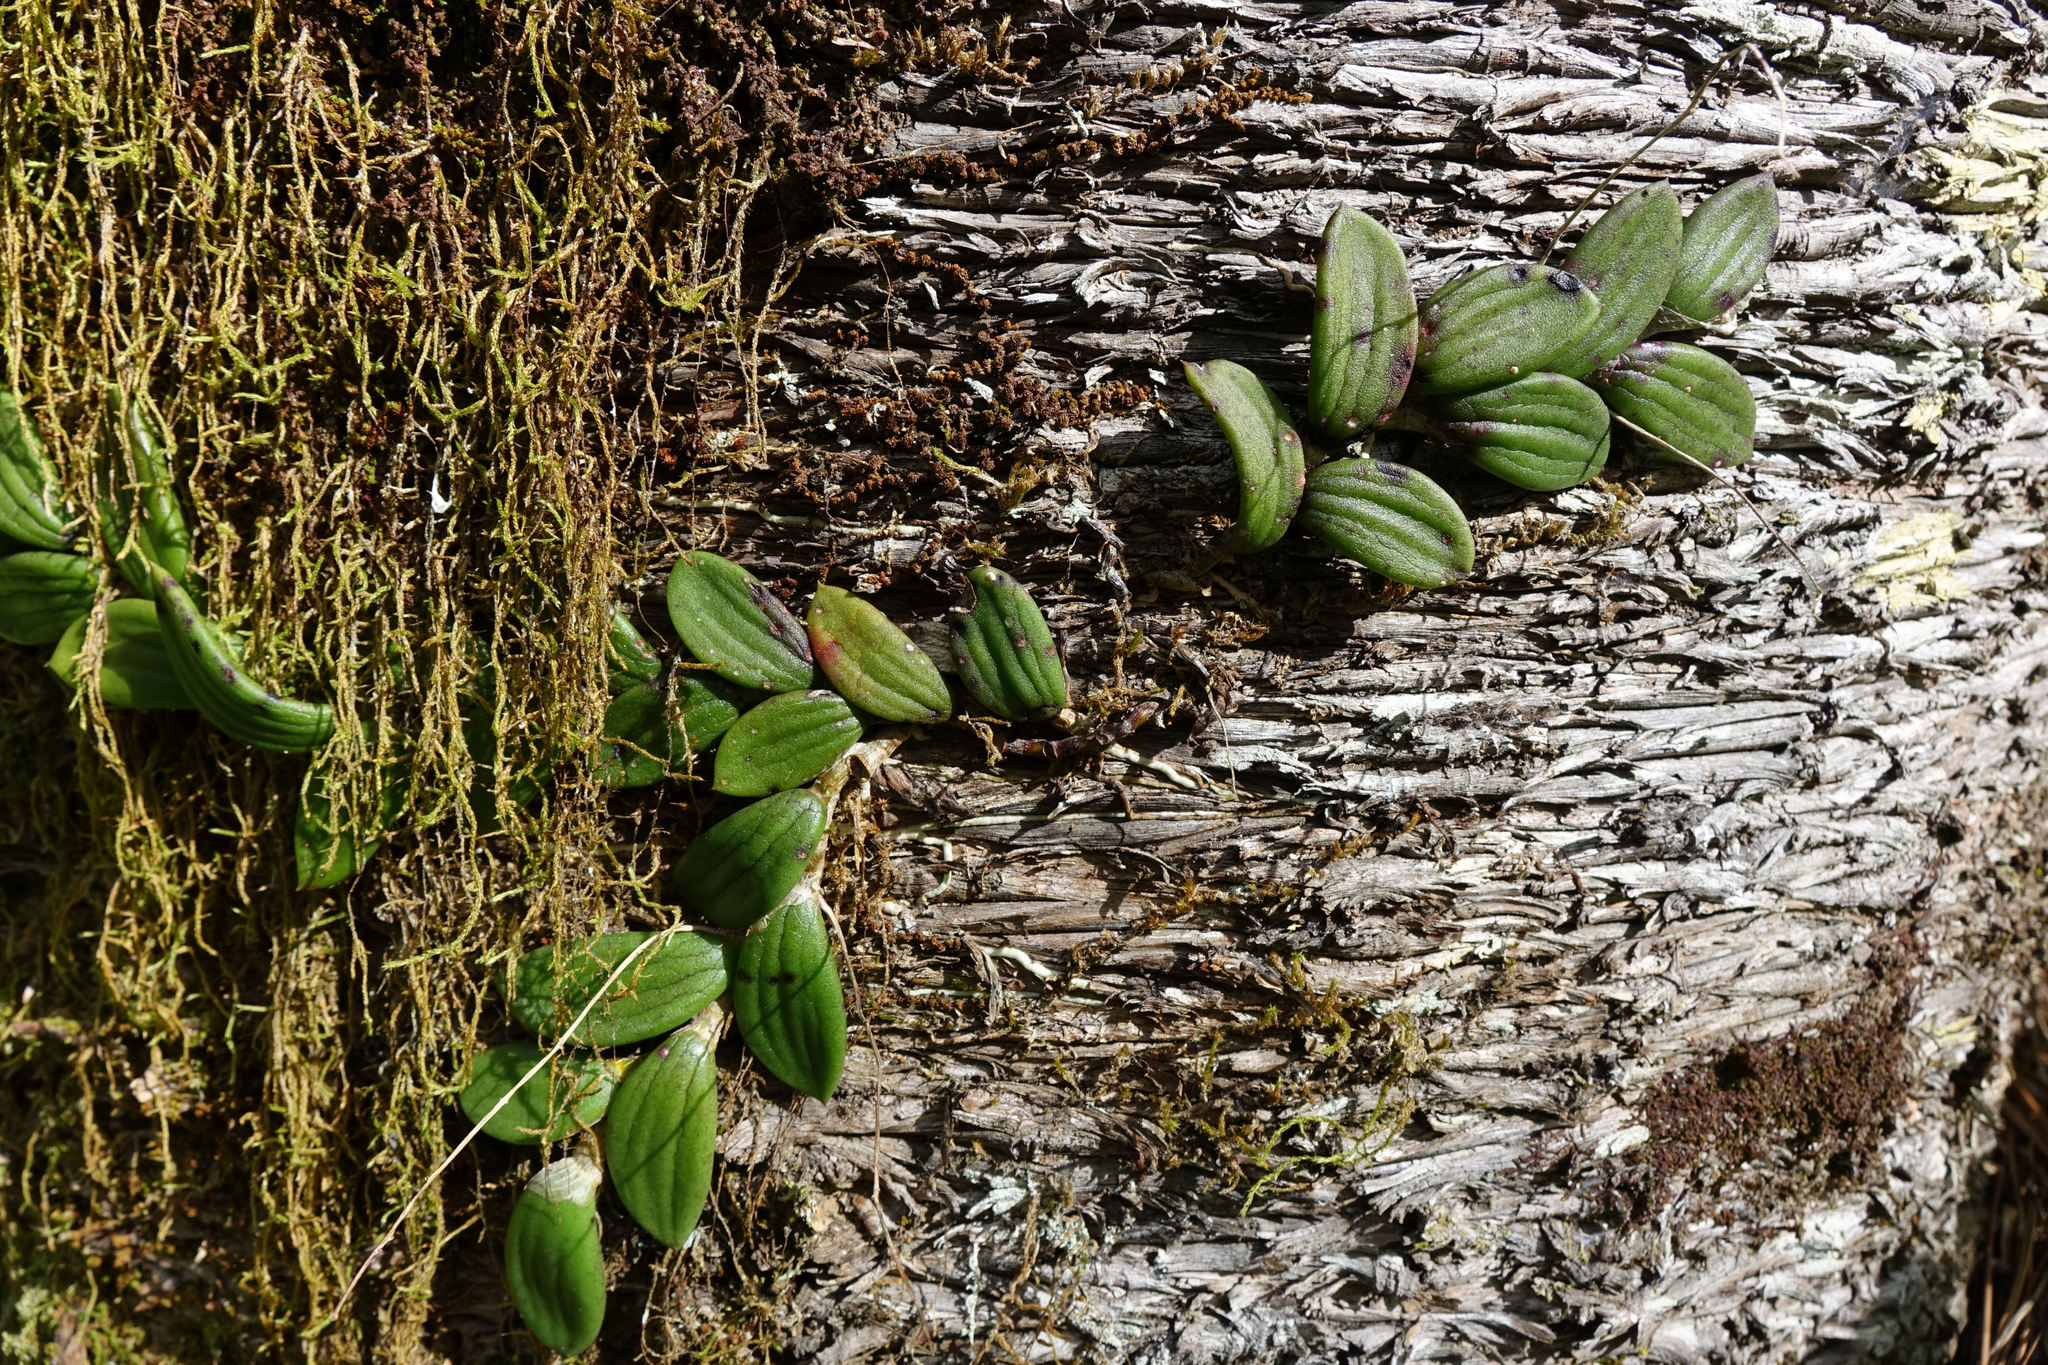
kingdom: Plantae
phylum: Tracheophyta
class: Liliopsida
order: Asparagales
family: Orchidaceae
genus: Dendrobium
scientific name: Dendrobium linguiforme
